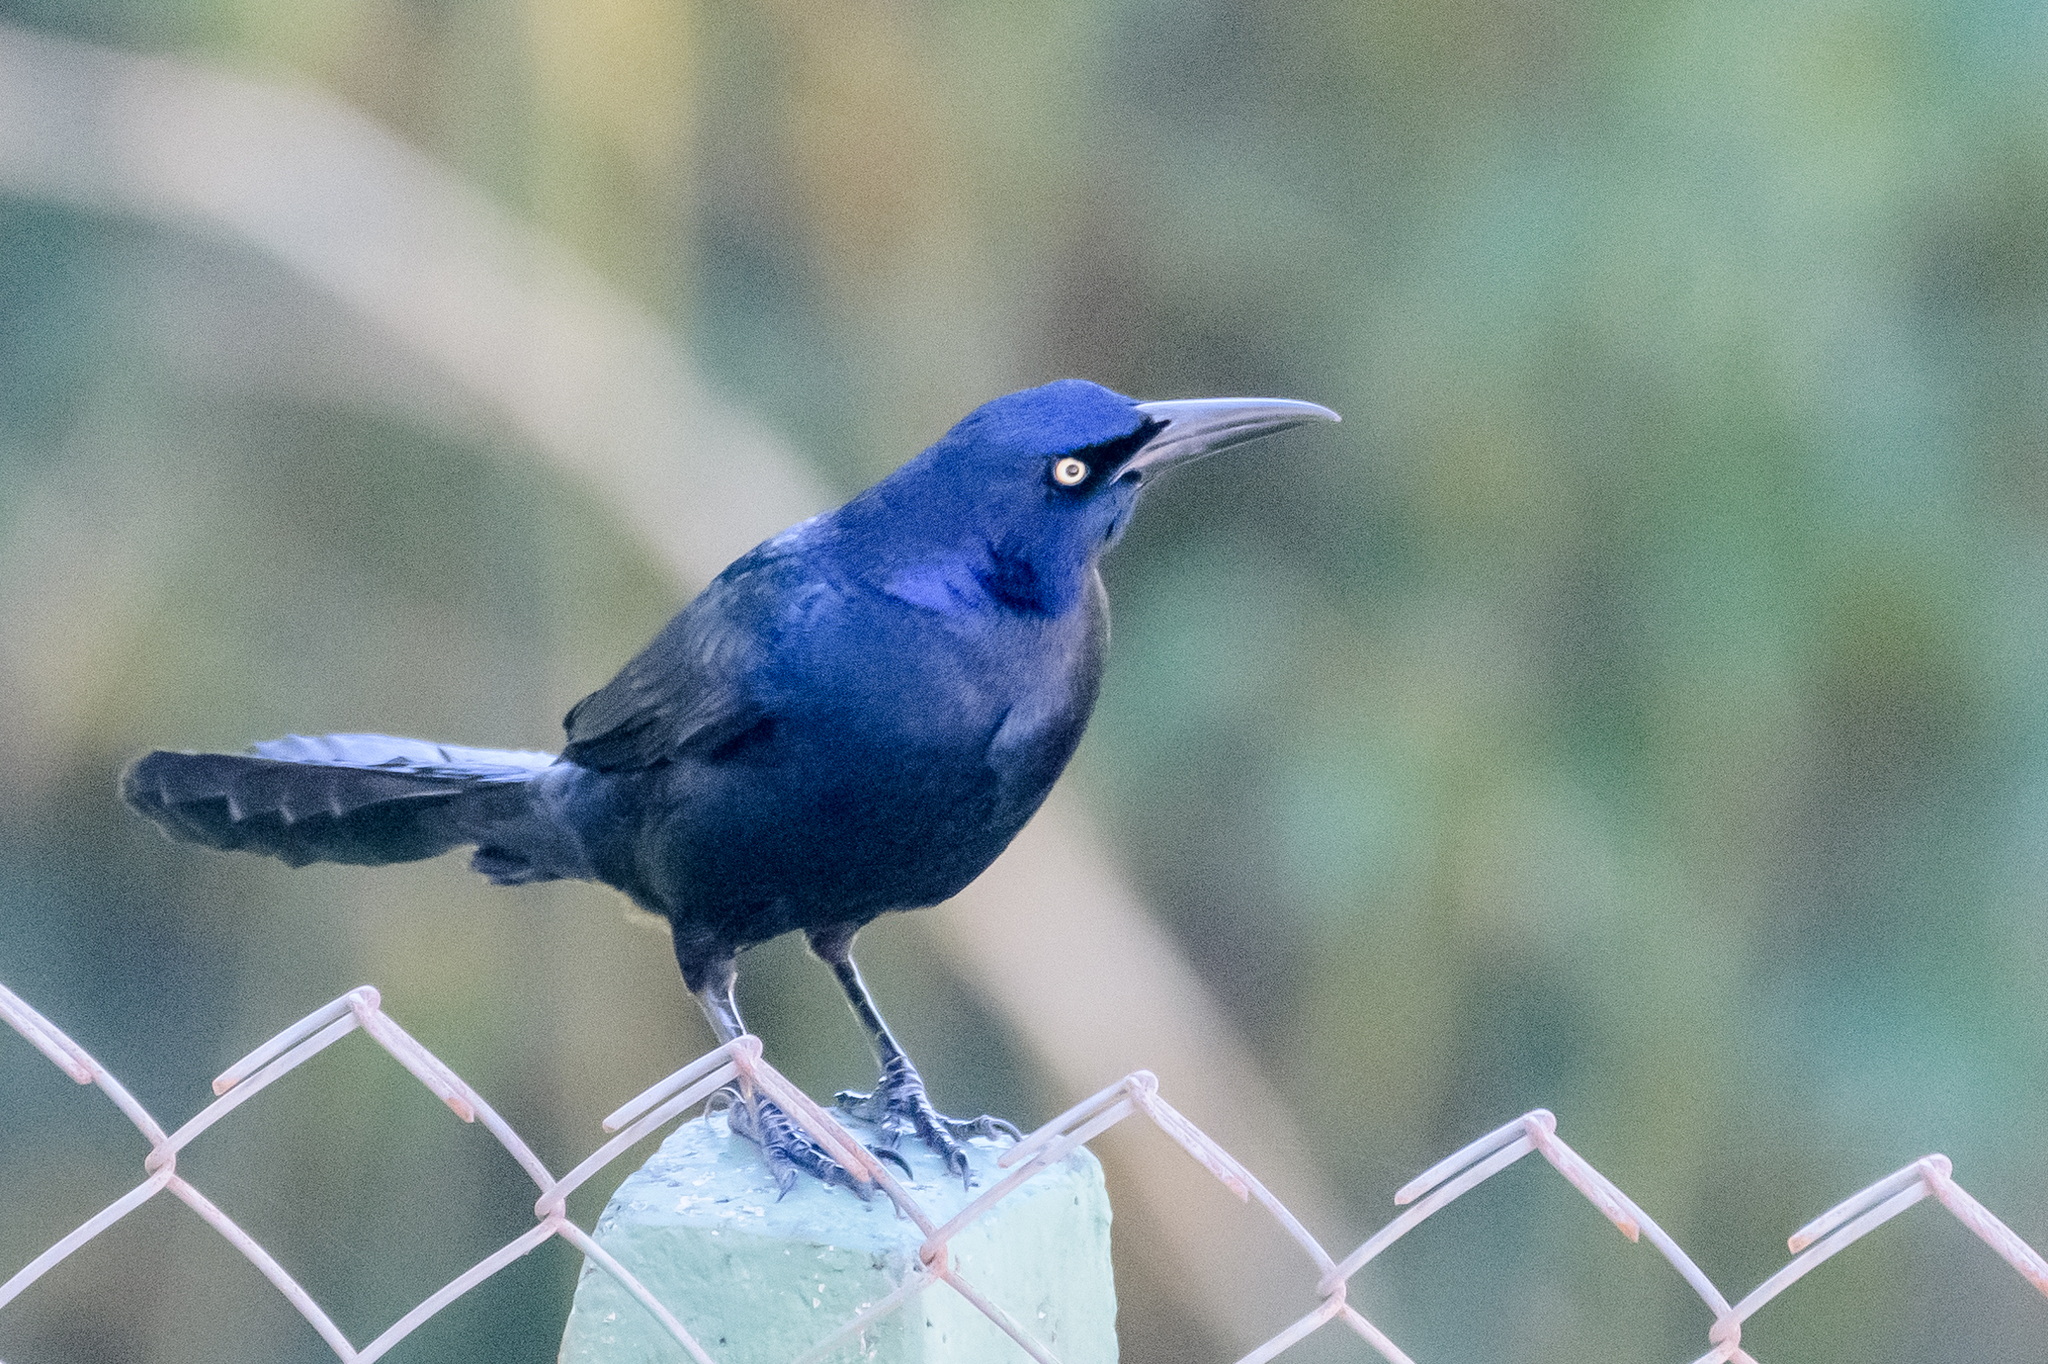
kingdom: Animalia
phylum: Chordata
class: Aves
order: Passeriformes
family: Icteridae
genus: Quiscalus
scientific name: Quiscalus mexicanus
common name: Great-tailed grackle
